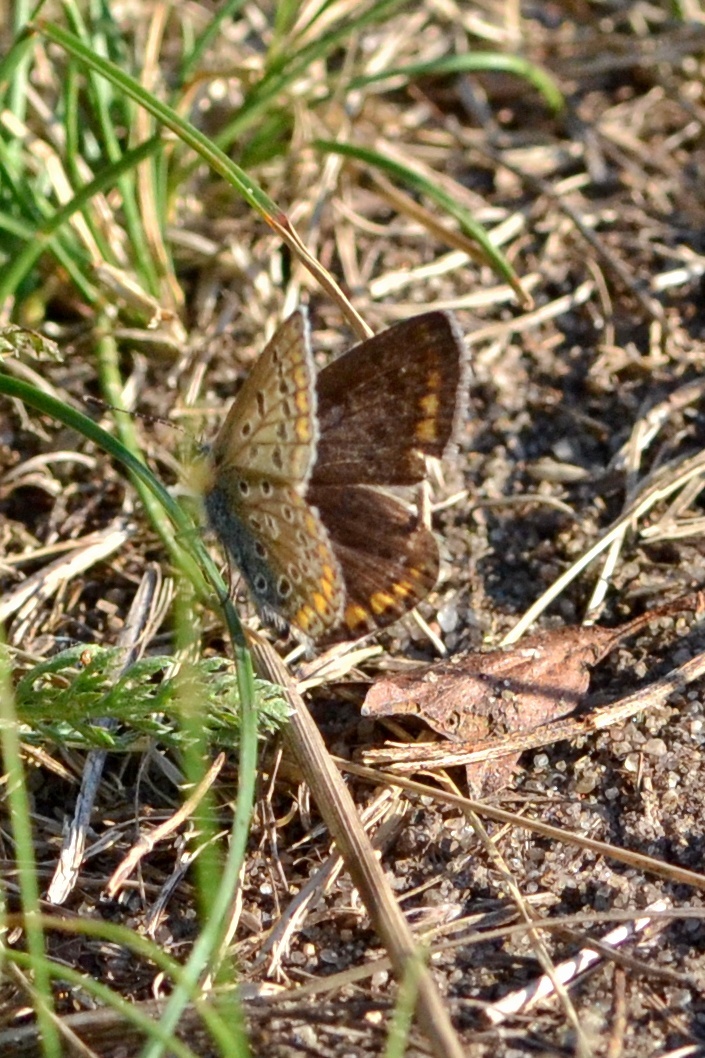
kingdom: Animalia
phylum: Arthropoda
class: Insecta
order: Lepidoptera
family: Lycaenidae
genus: Polyommatus
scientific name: Polyommatus icarus
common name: Common blue
